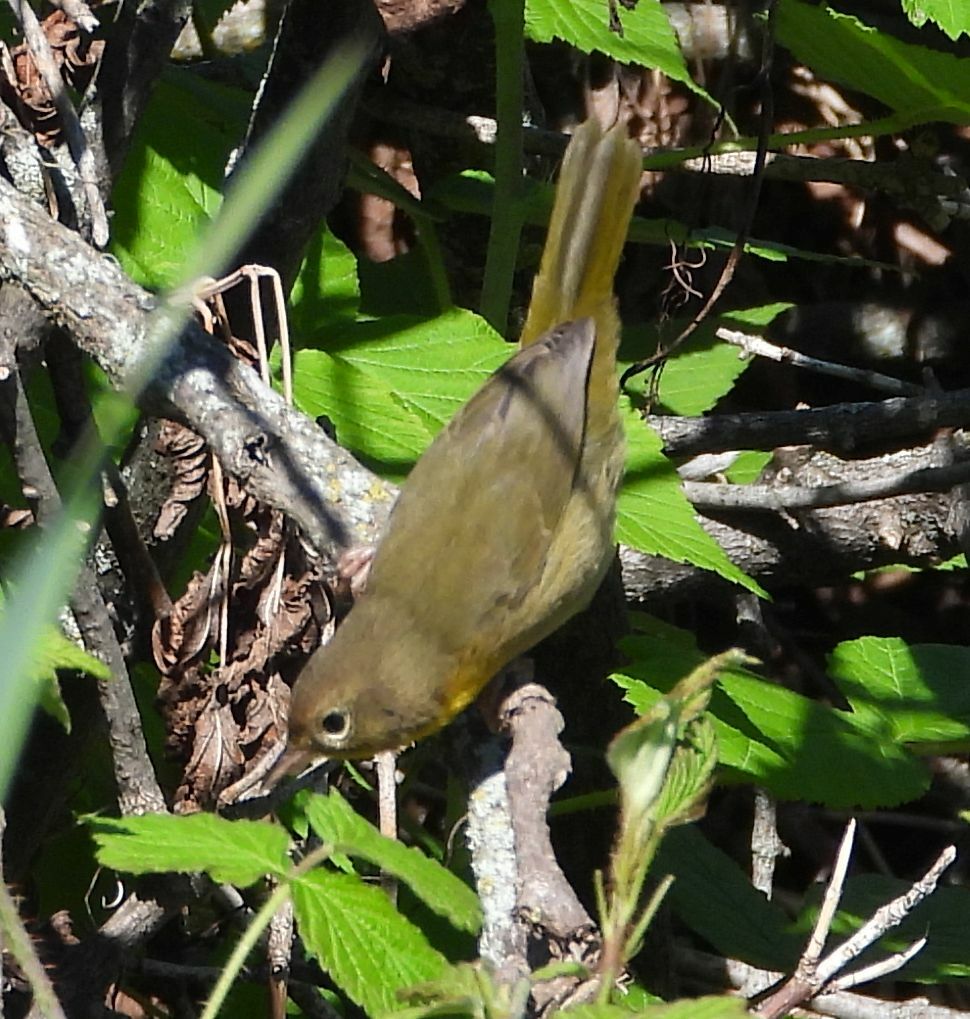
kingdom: Animalia
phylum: Chordata
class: Aves
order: Passeriformes
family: Parulidae
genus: Geothlypis
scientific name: Geothlypis trichas
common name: Common yellowthroat
